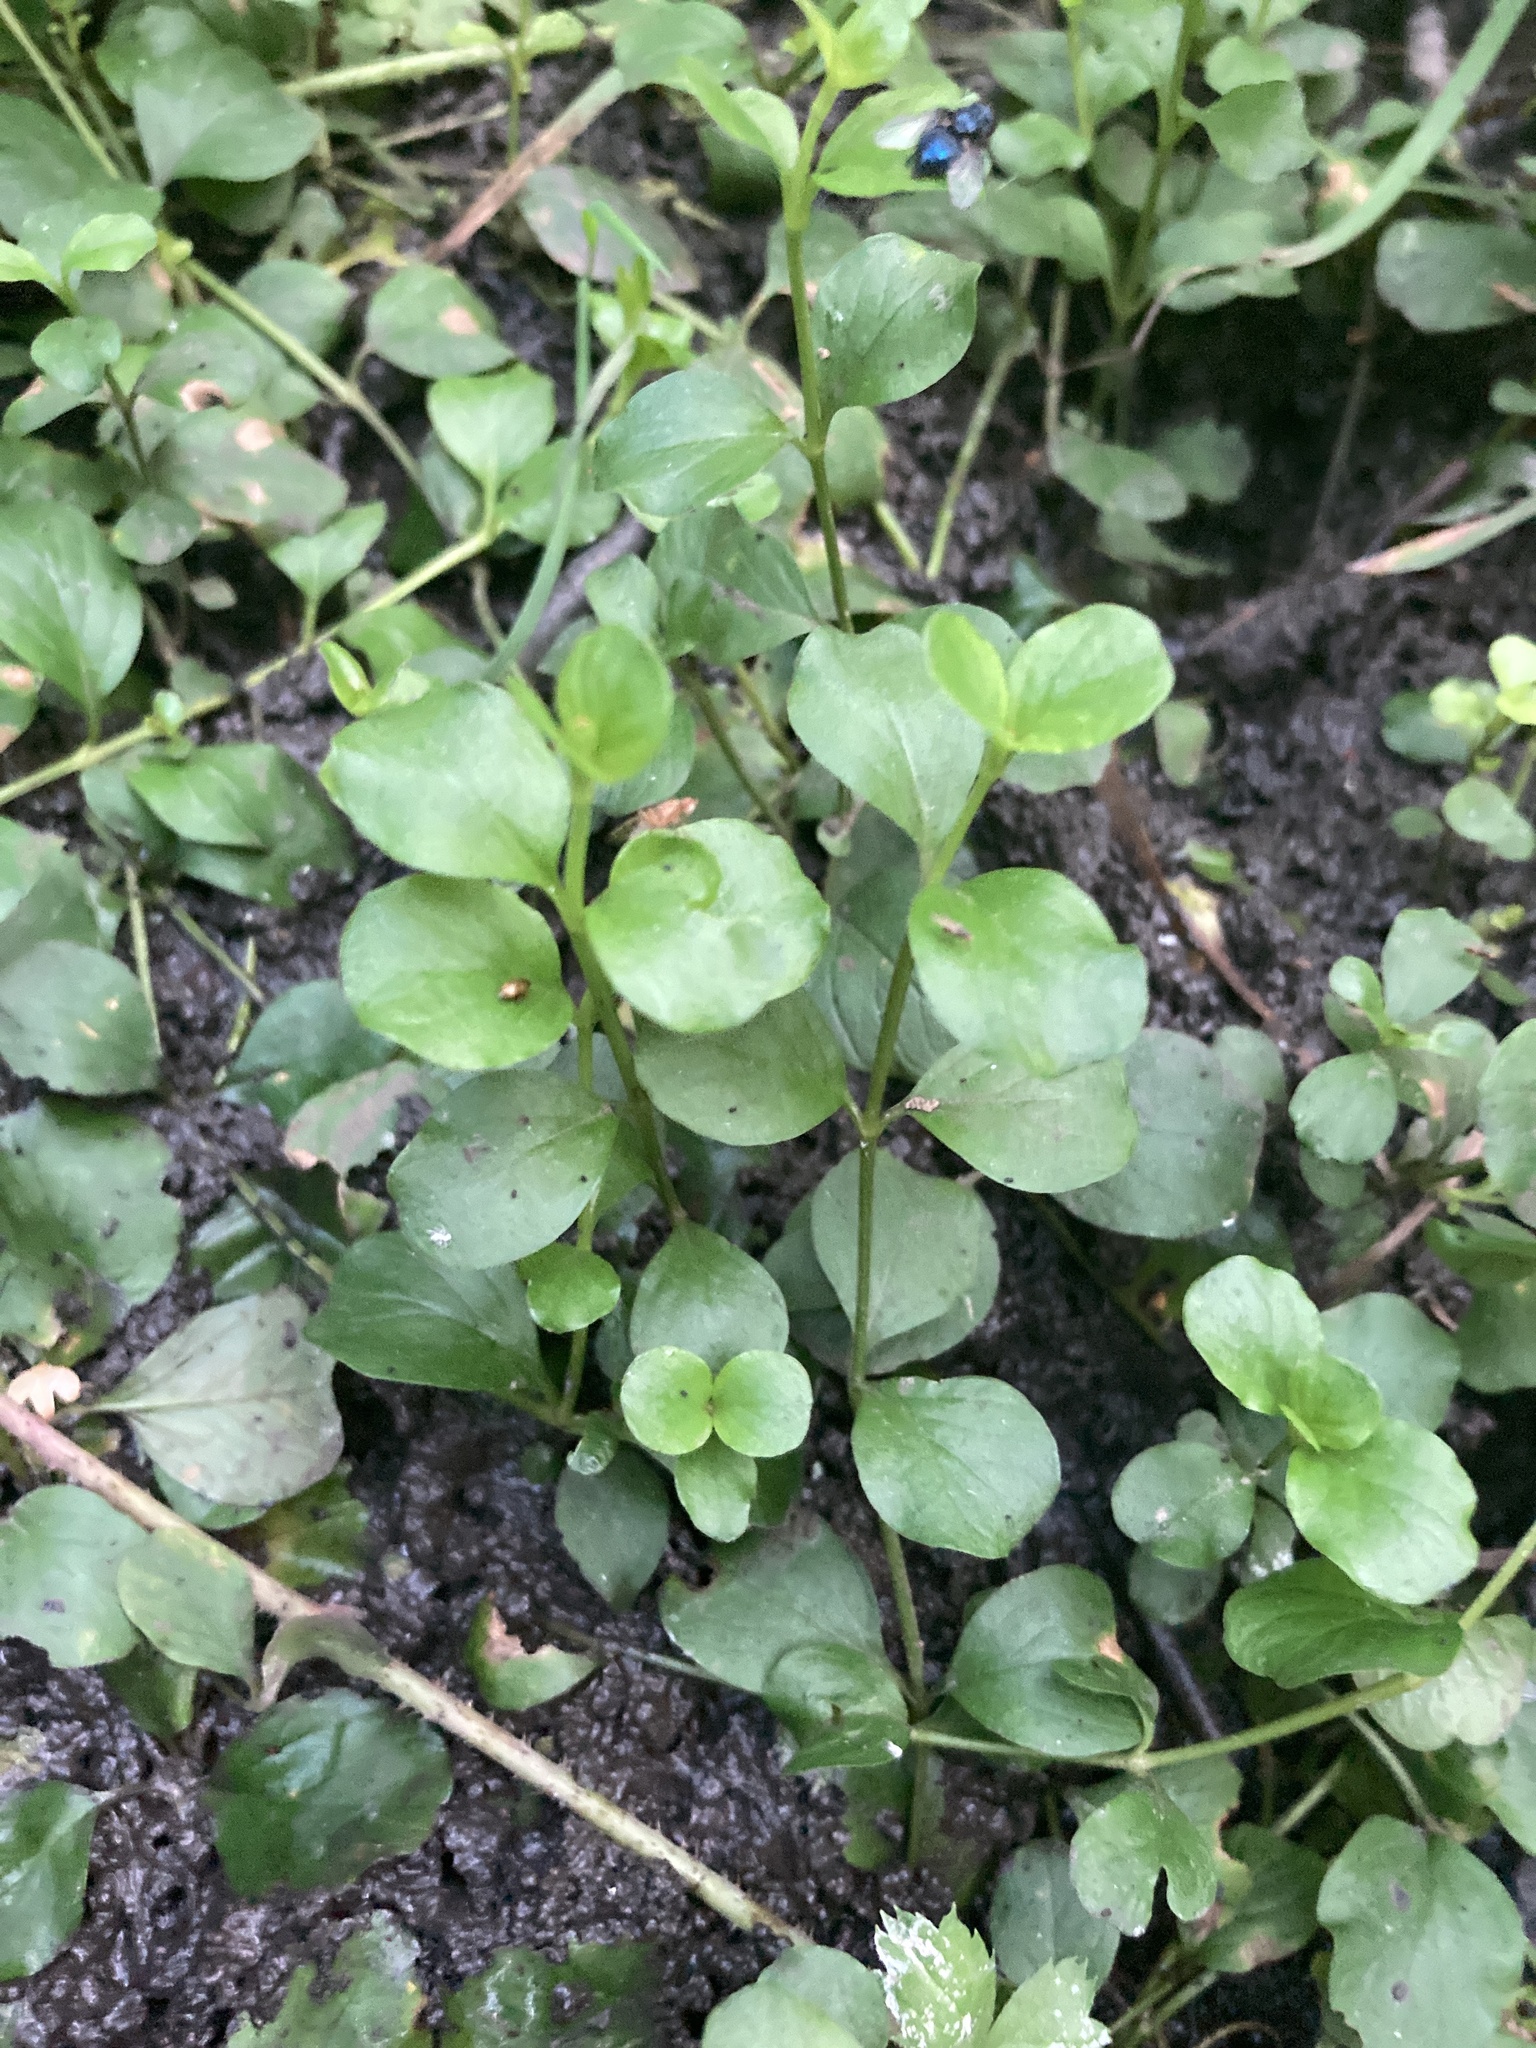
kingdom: Plantae
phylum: Tracheophyta
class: Magnoliopsida
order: Ericales
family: Primulaceae
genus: Lysimachia
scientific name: Lysimachia nummularia
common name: Moneywort
